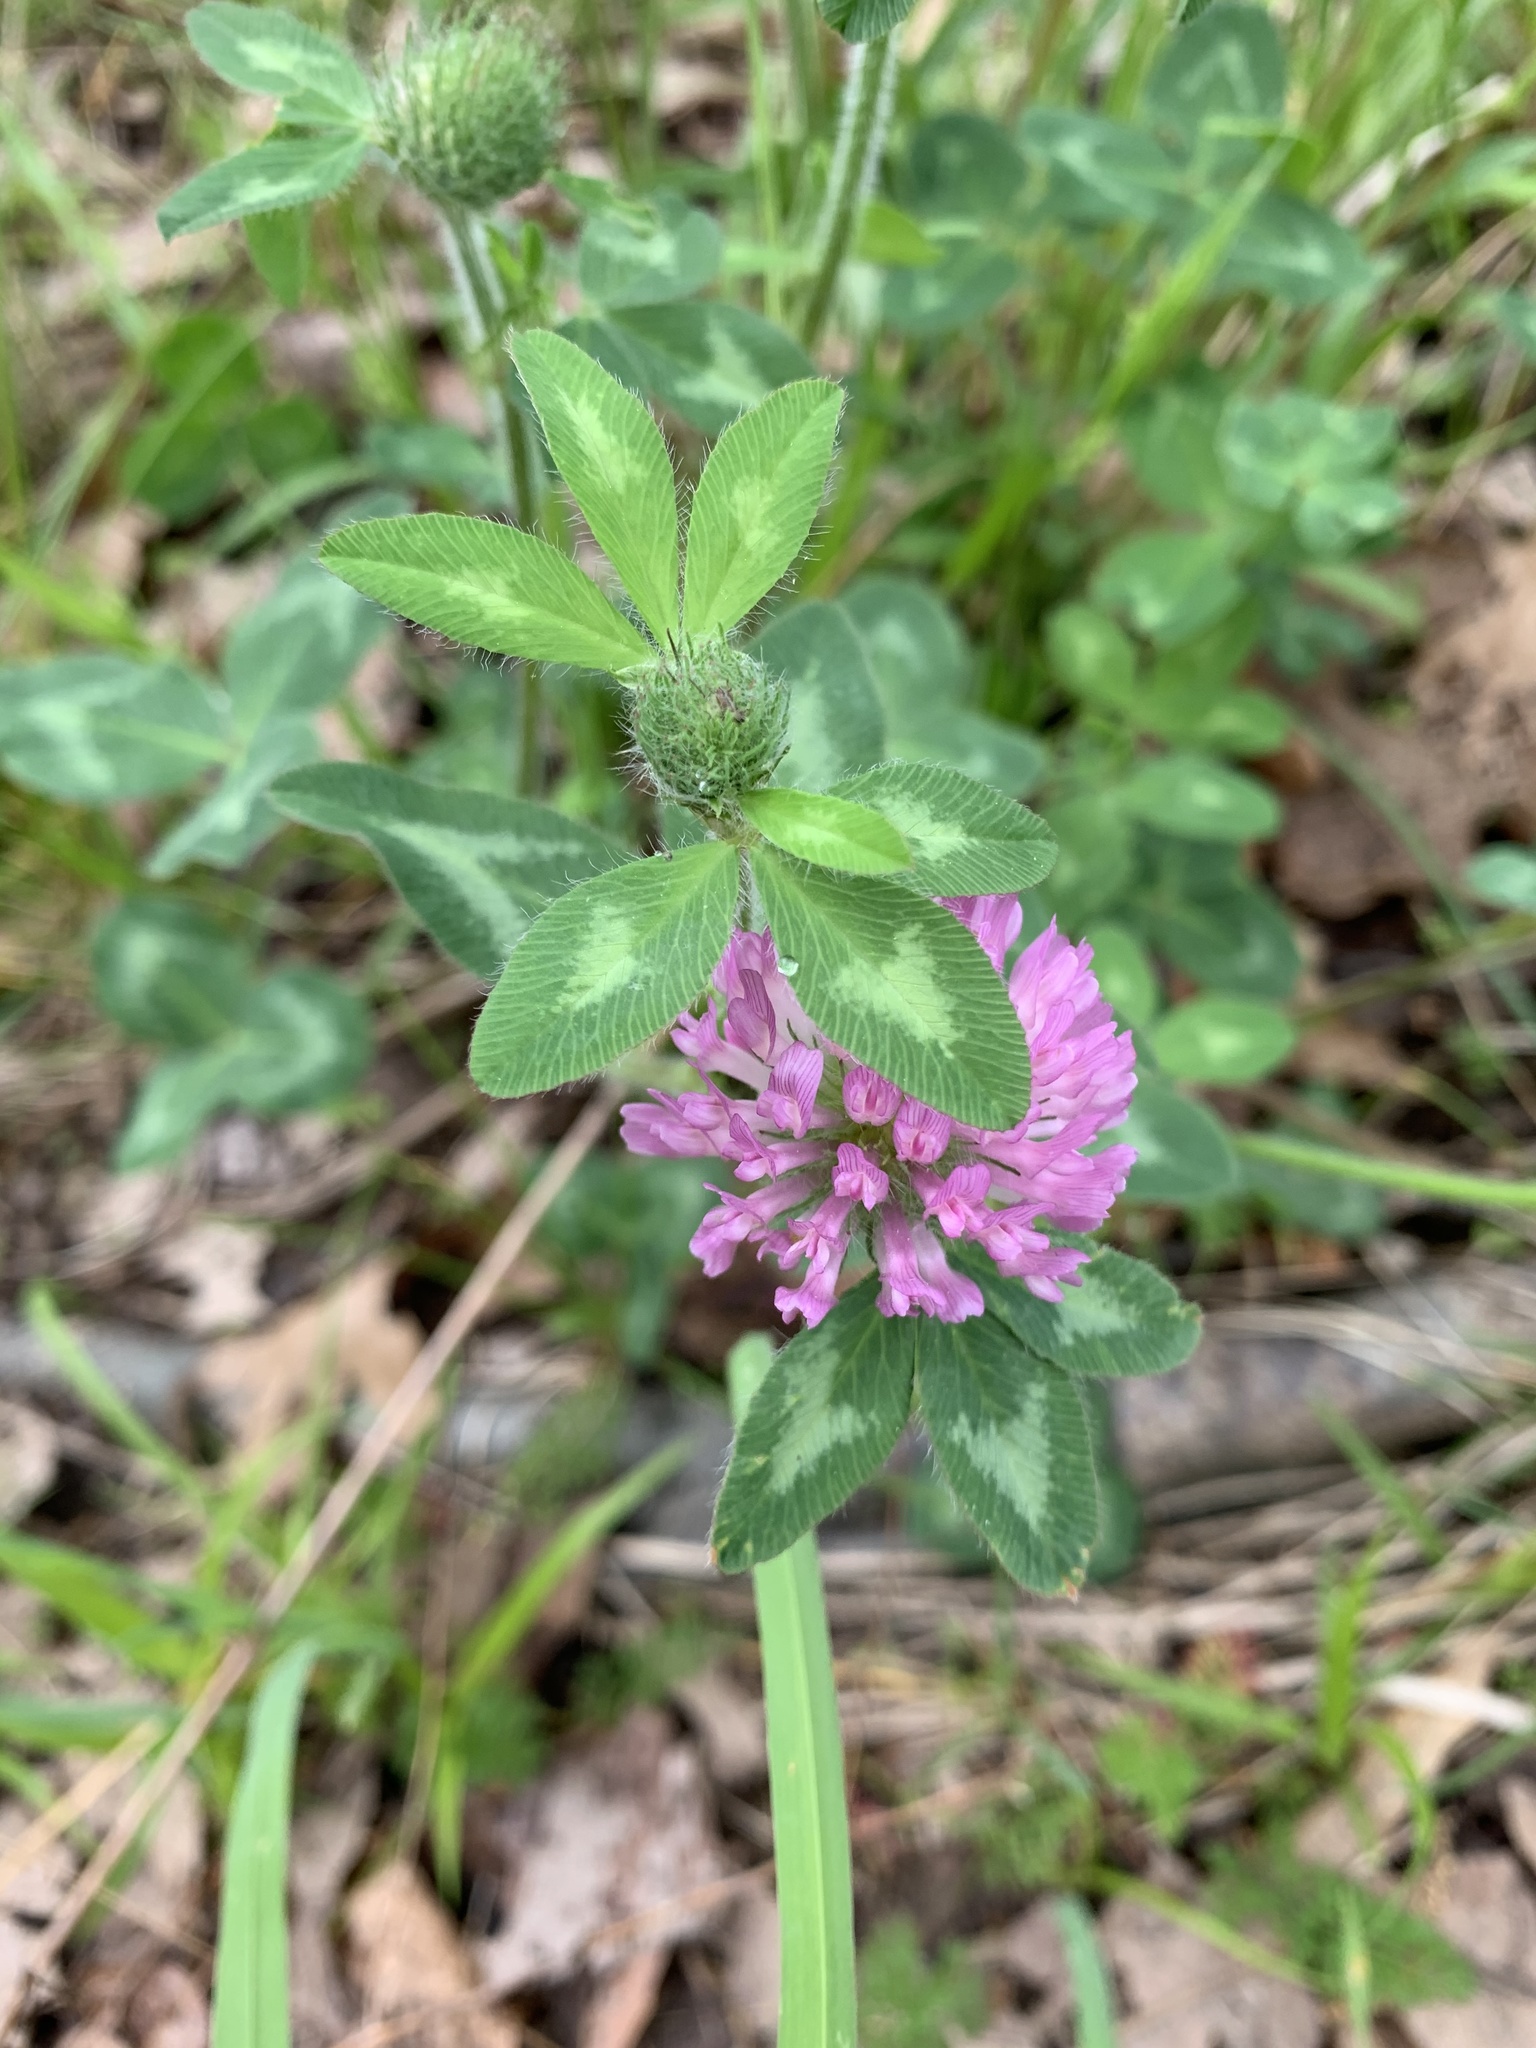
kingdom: Plantae
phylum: Tracheophyta
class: Magnoliopsida
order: Fabales
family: Fabaceae
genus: Trifolium
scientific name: Trifolium pratense
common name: Red clover
